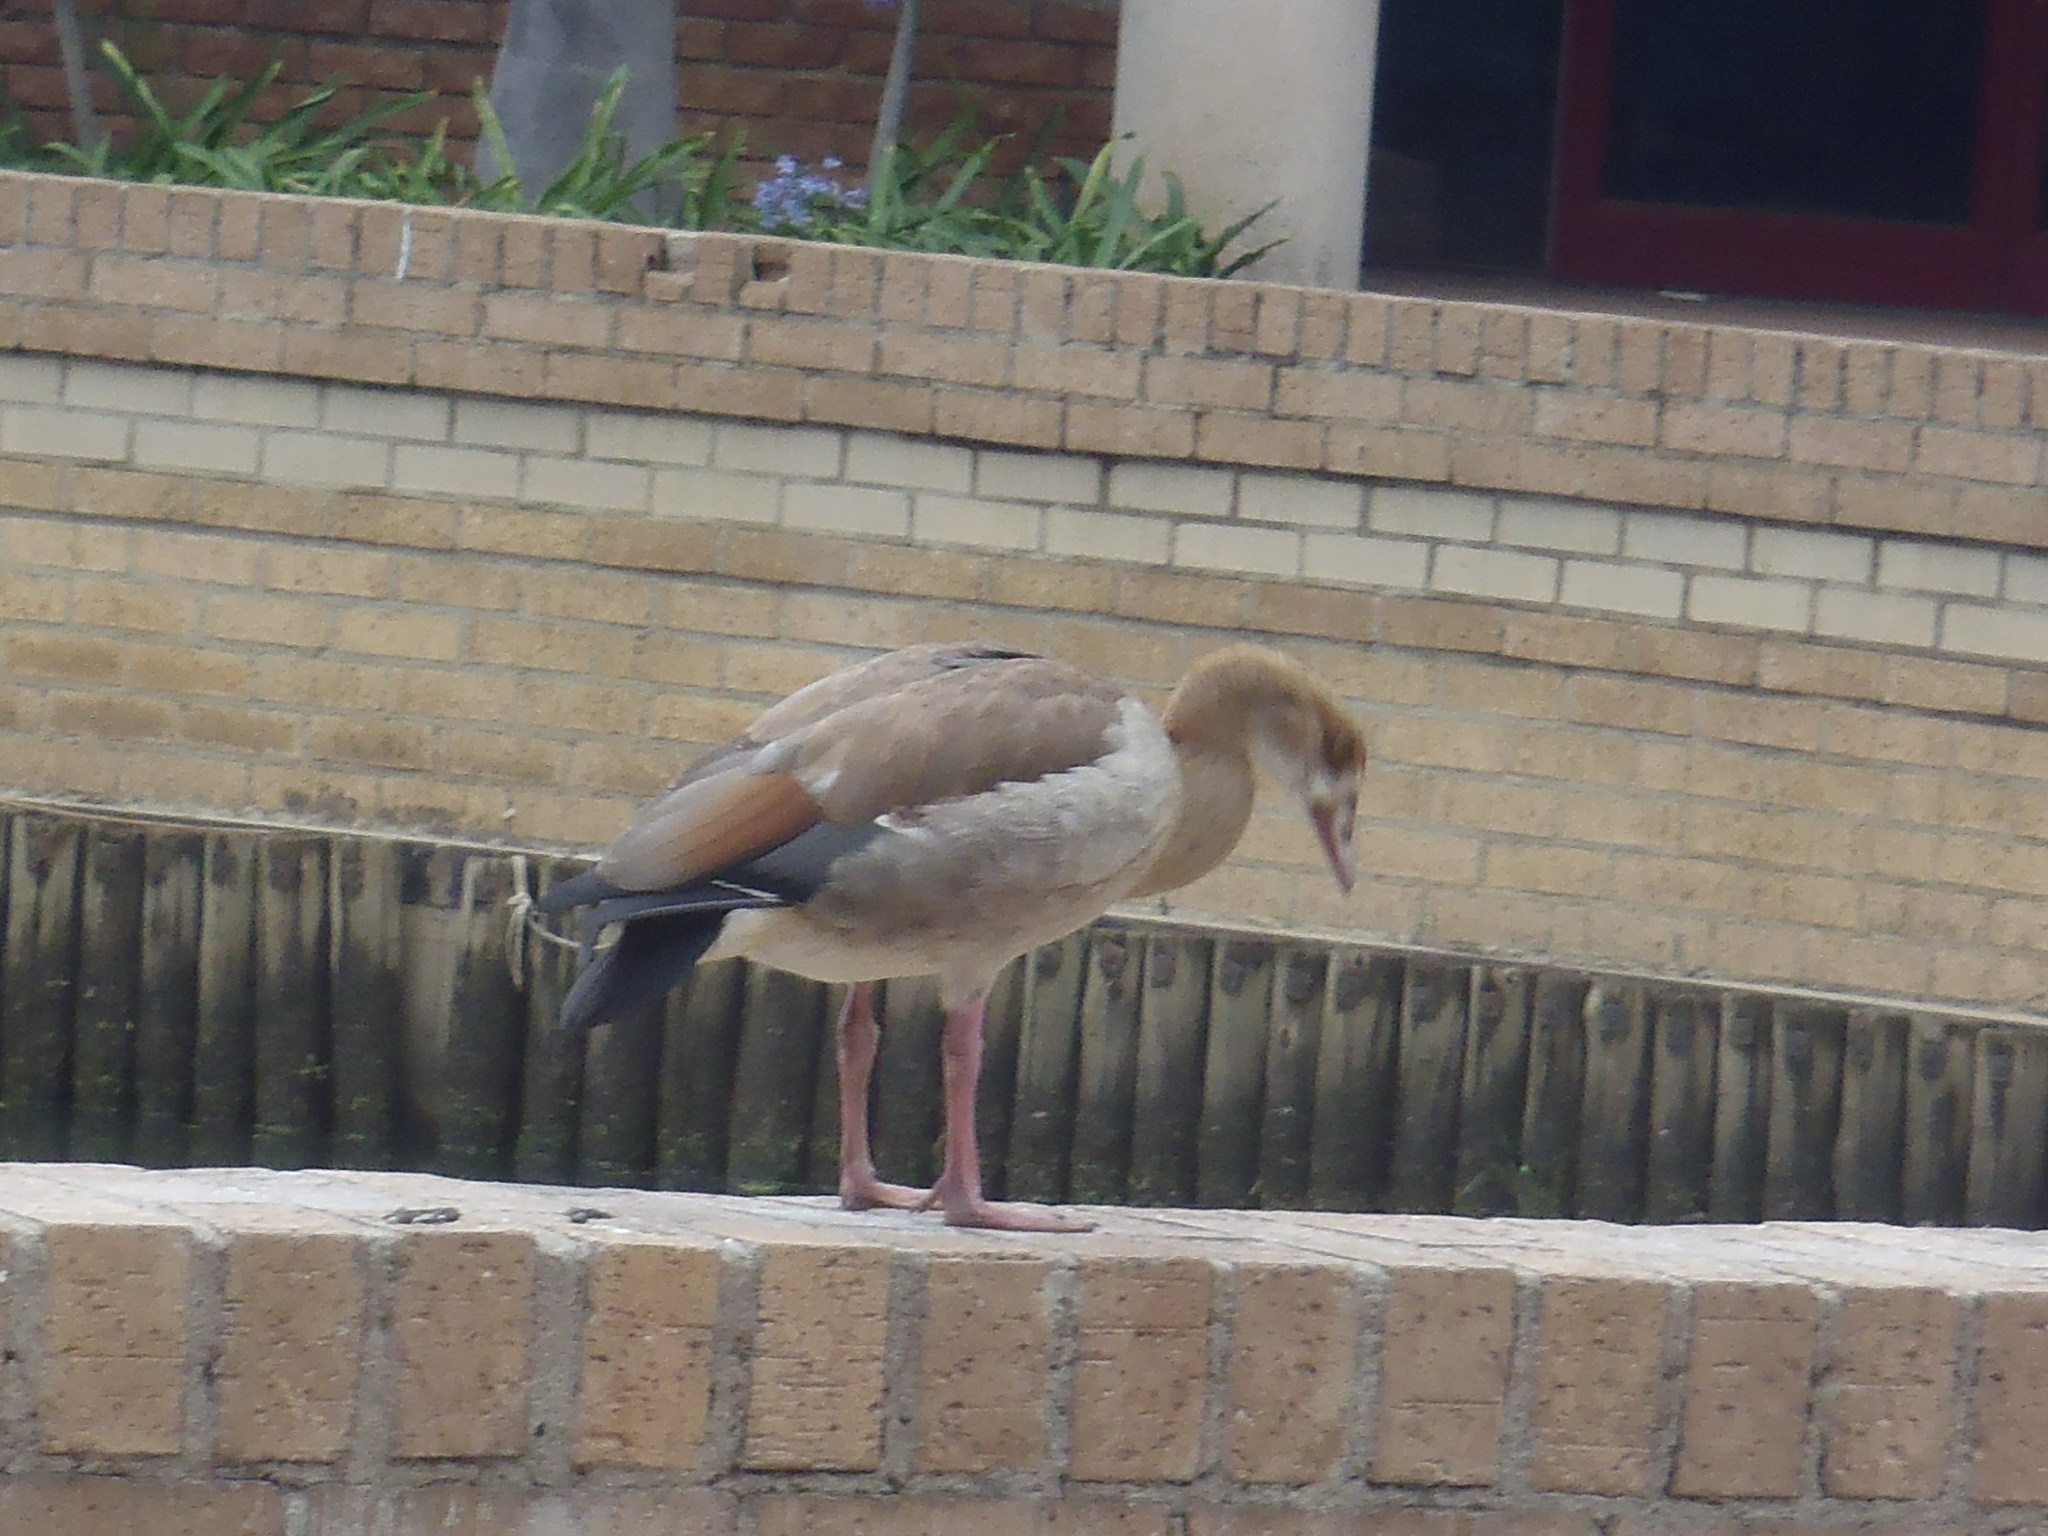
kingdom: Animalia
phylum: Chordata
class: Aves
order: Anseriformes
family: Anatidae
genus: Alopochen
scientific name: Alopochen aegyptiaca
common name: Egyptian goose
